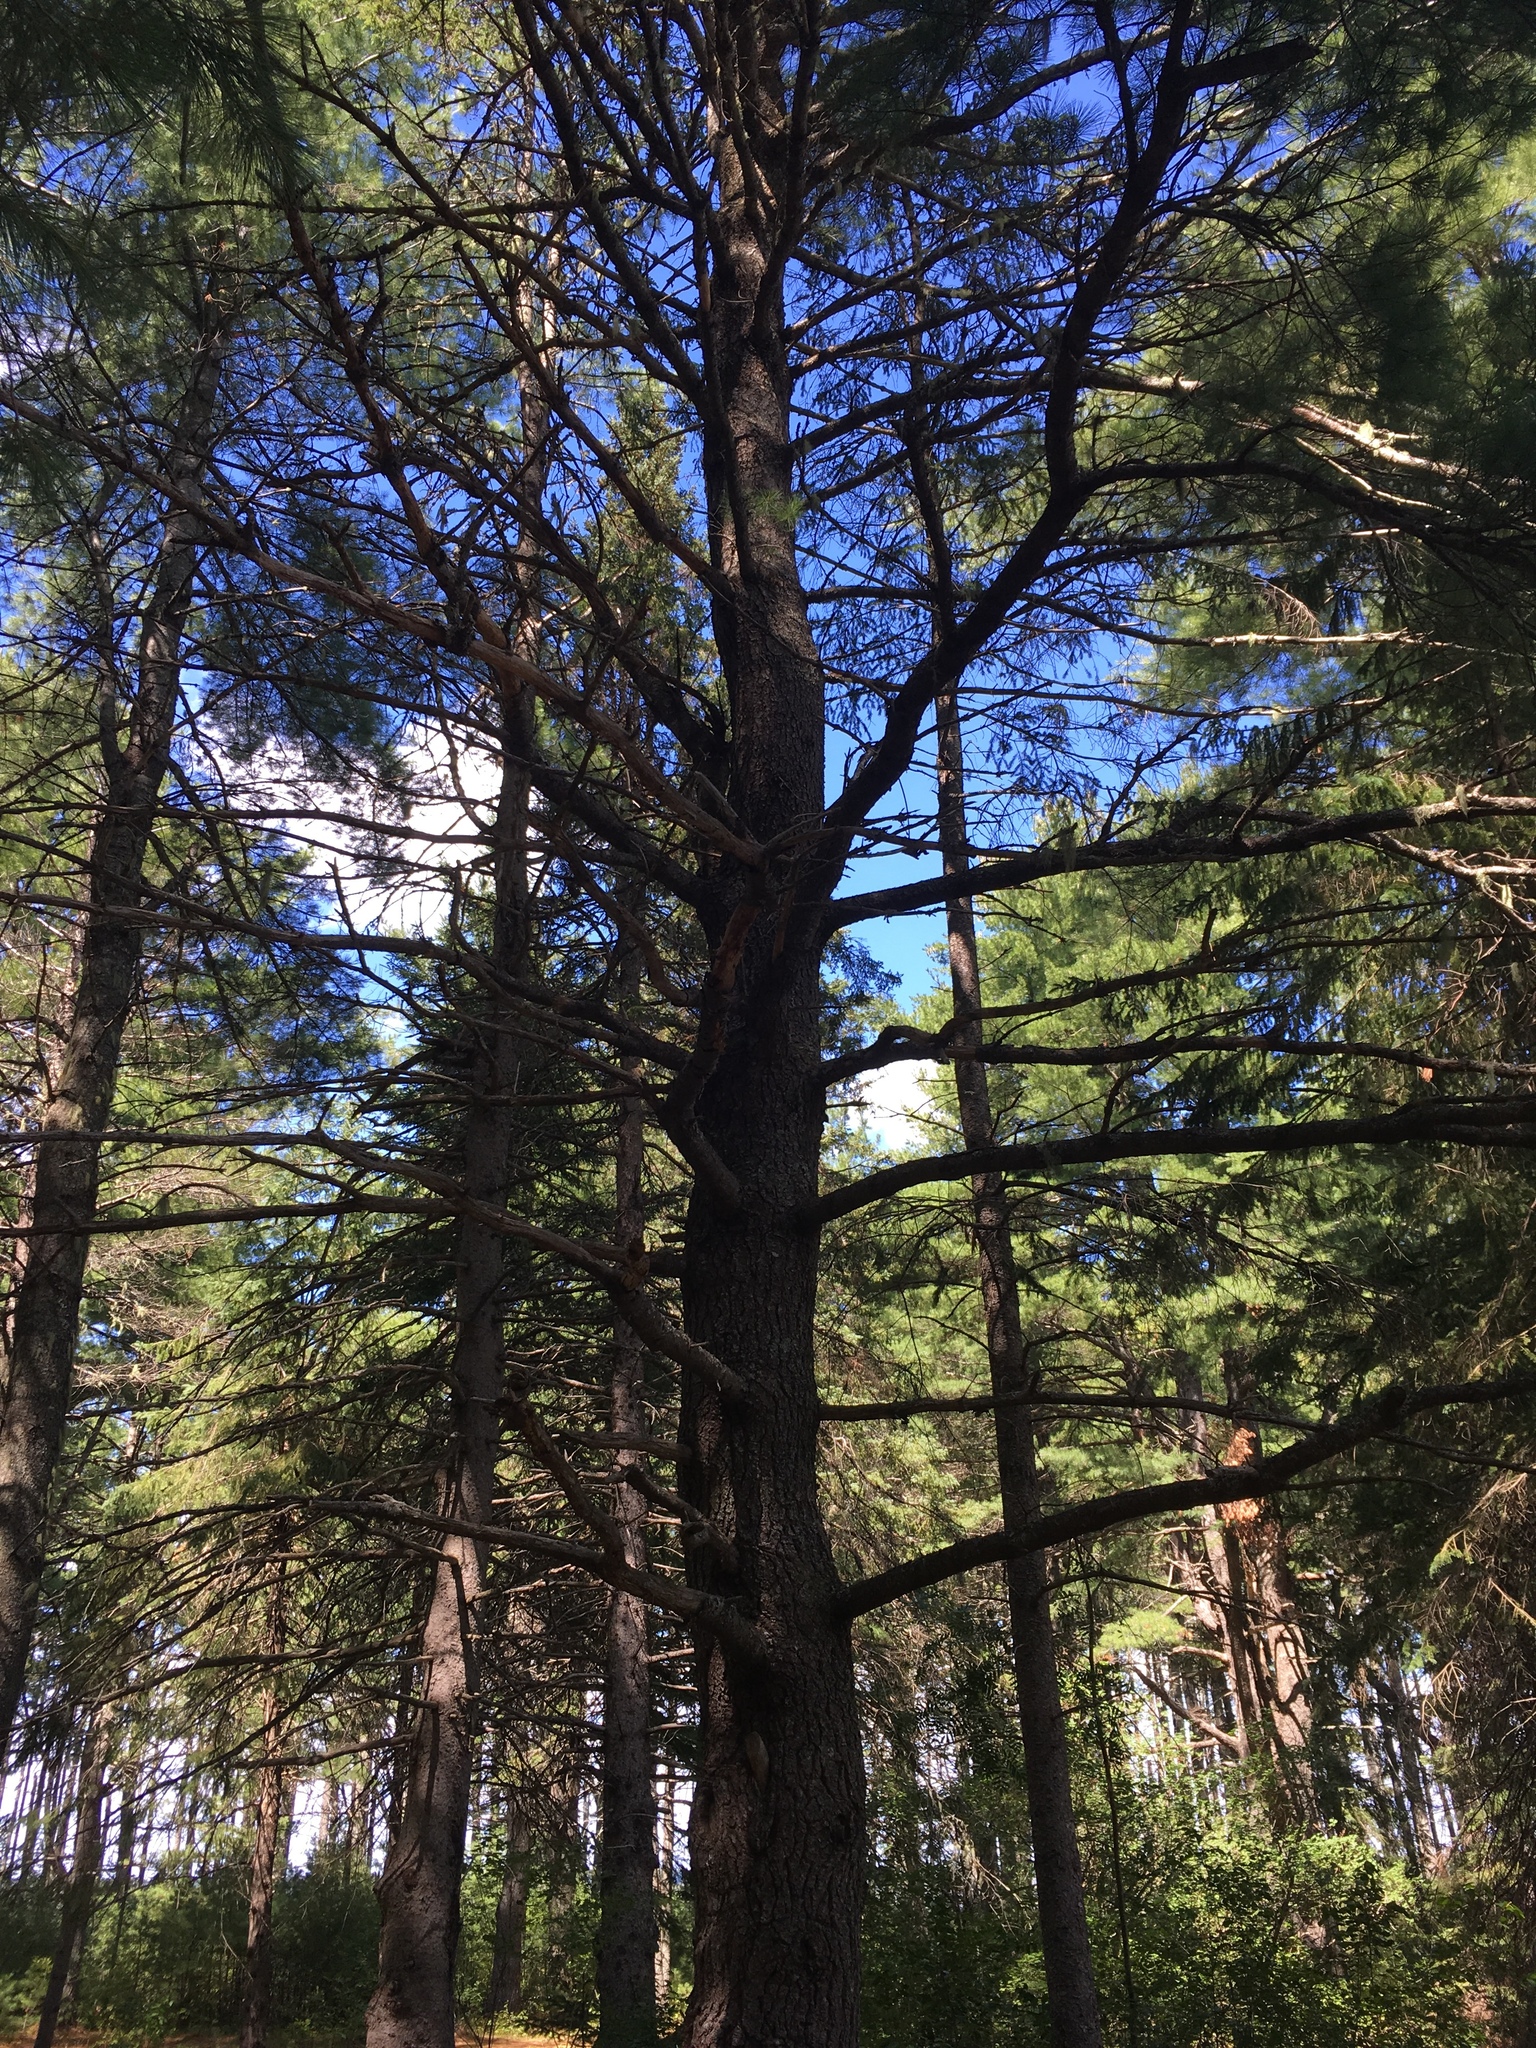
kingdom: Plantae
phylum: Tracheophyta
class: Pinopsida
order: Pinales
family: Pinaceae
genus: Pinus
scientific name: Pinus strobus
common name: Weymouth pine
